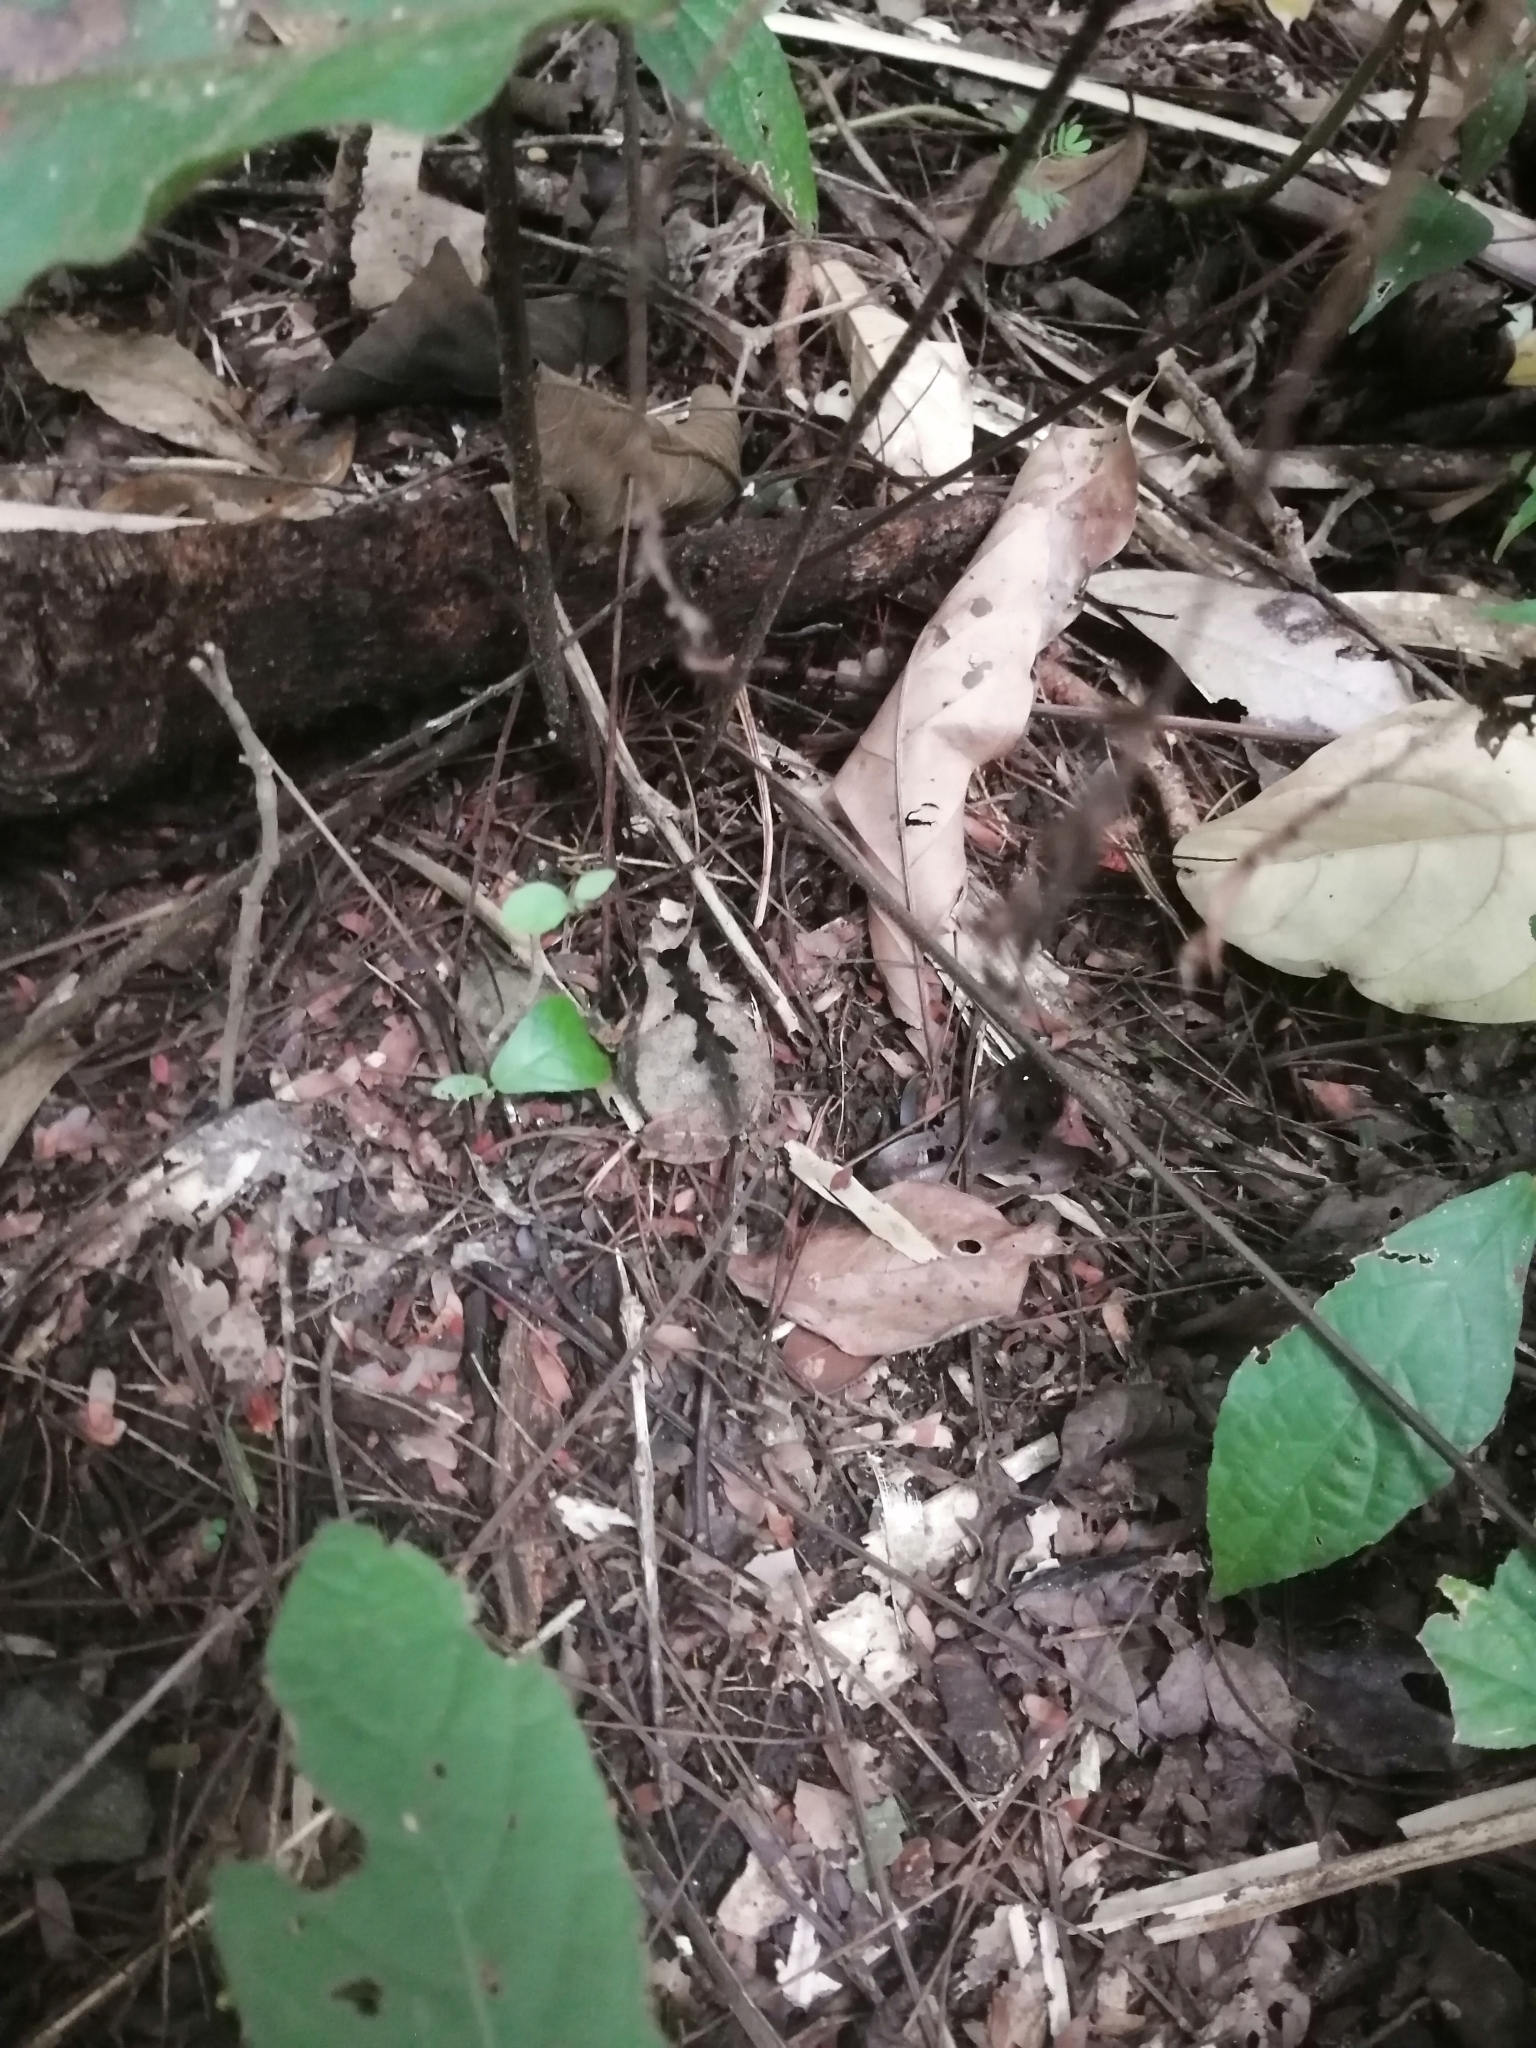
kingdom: Animalia
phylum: Chordata
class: Amphibia
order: Anura
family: Bufonidae
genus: Rhinella
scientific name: Rhinella alata
